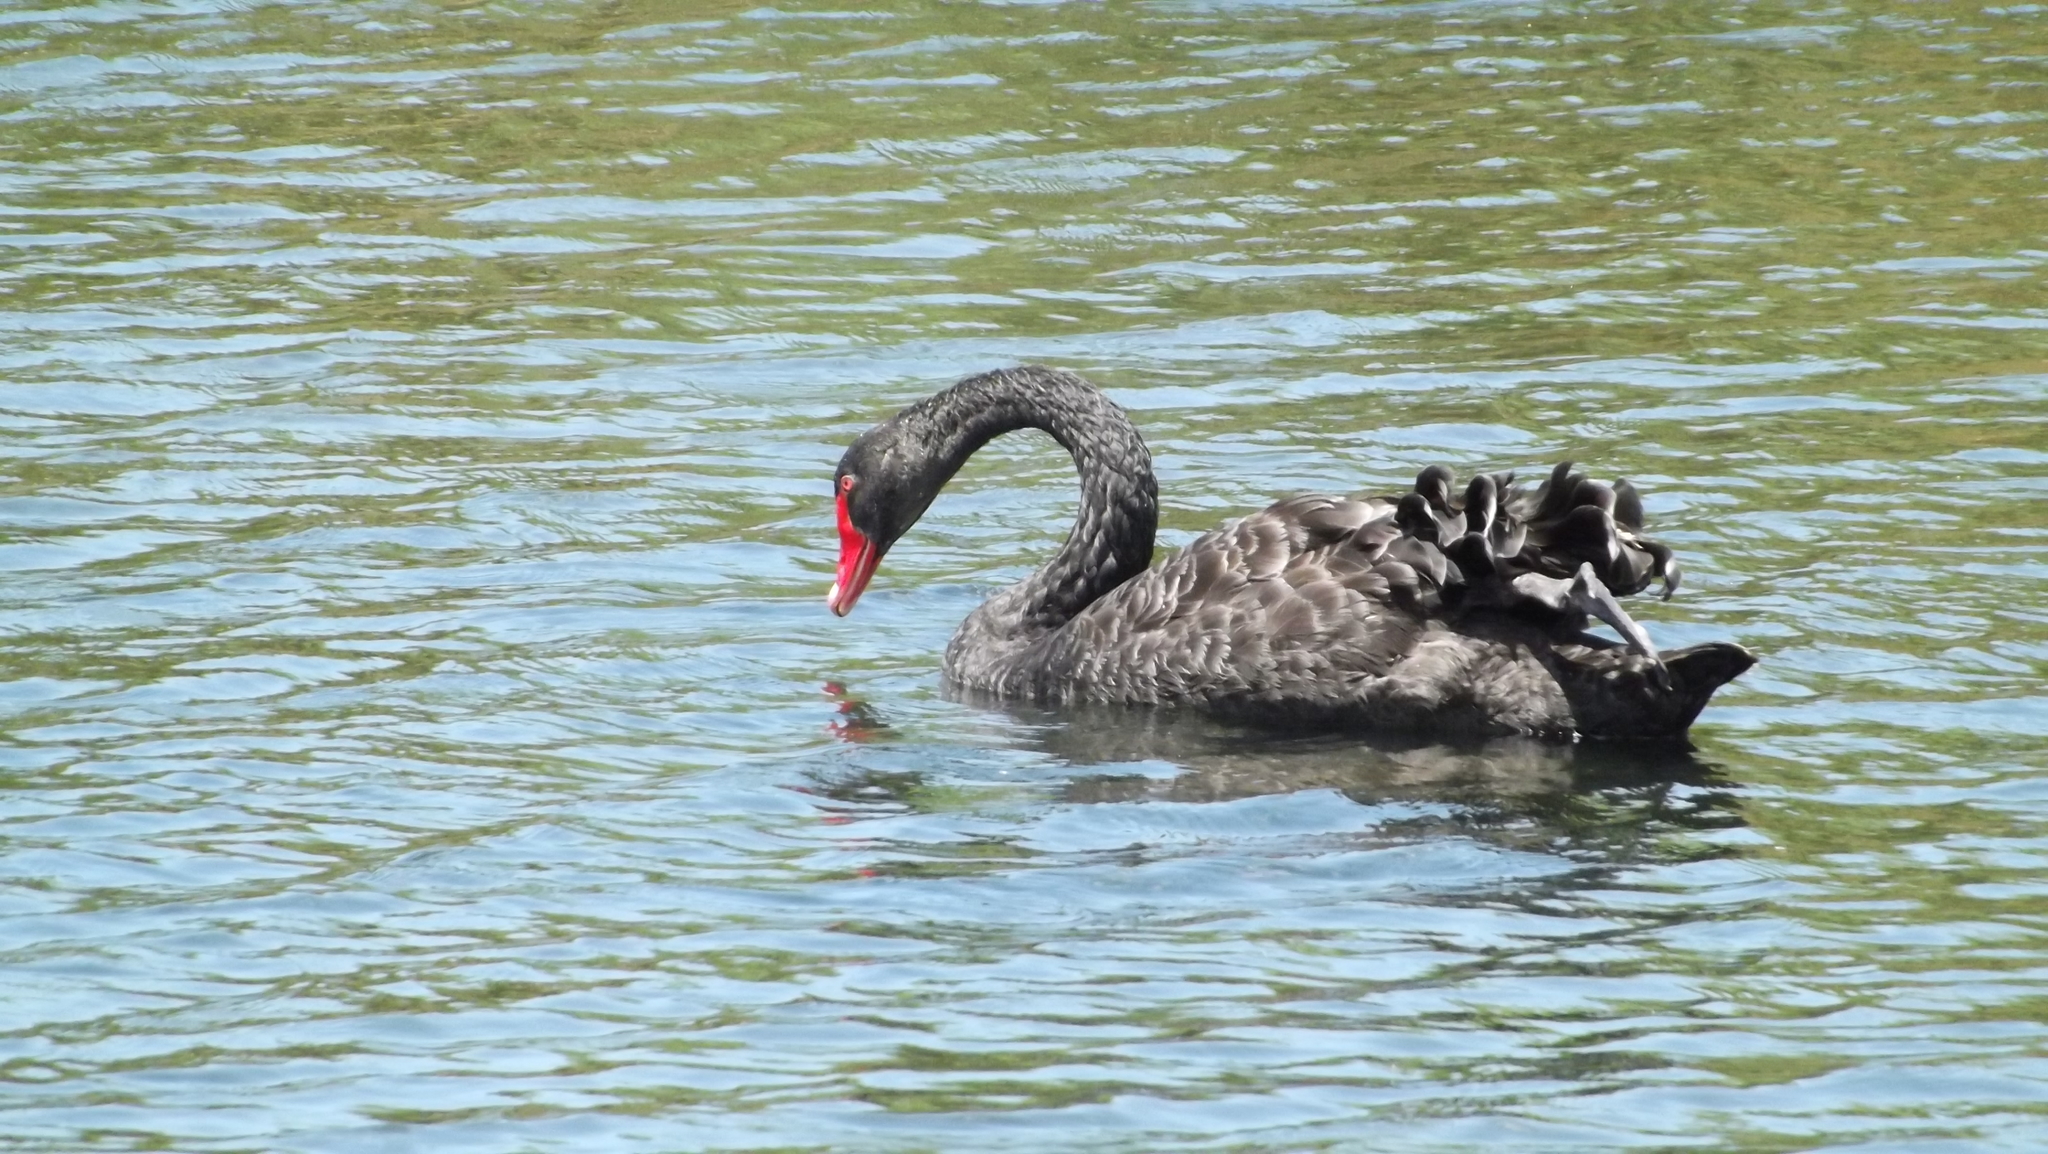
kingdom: Animalia
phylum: Chordata
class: Aves
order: Anseriformes
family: Anatidae
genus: Cygnus
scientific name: Cygnus atratus
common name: Black swan
